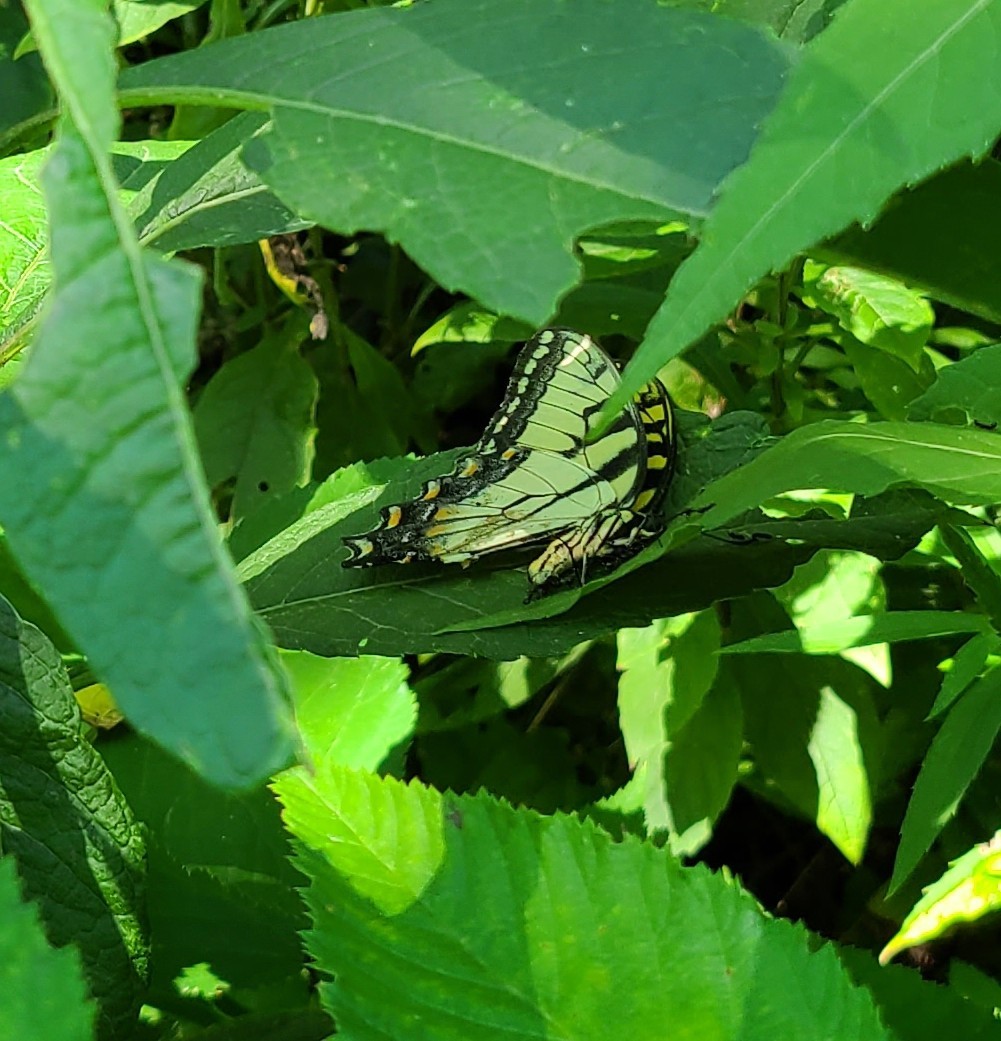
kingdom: Animalia
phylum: Arthropoda
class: Insecta
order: Lepidoptera
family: Papilionidae
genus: Papilio
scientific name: Papilio glaucus
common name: Tiger swallowtail
